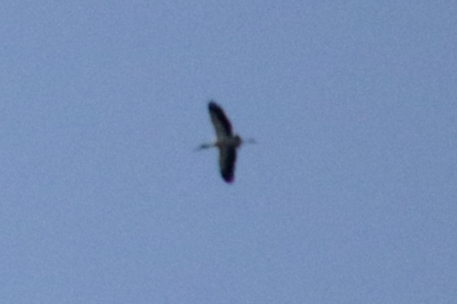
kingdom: Animalia
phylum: Chordata
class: Aves
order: Ciconiiformes
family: Ciconiidae
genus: Mycteria
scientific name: Mycteria americana
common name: Wood stork
